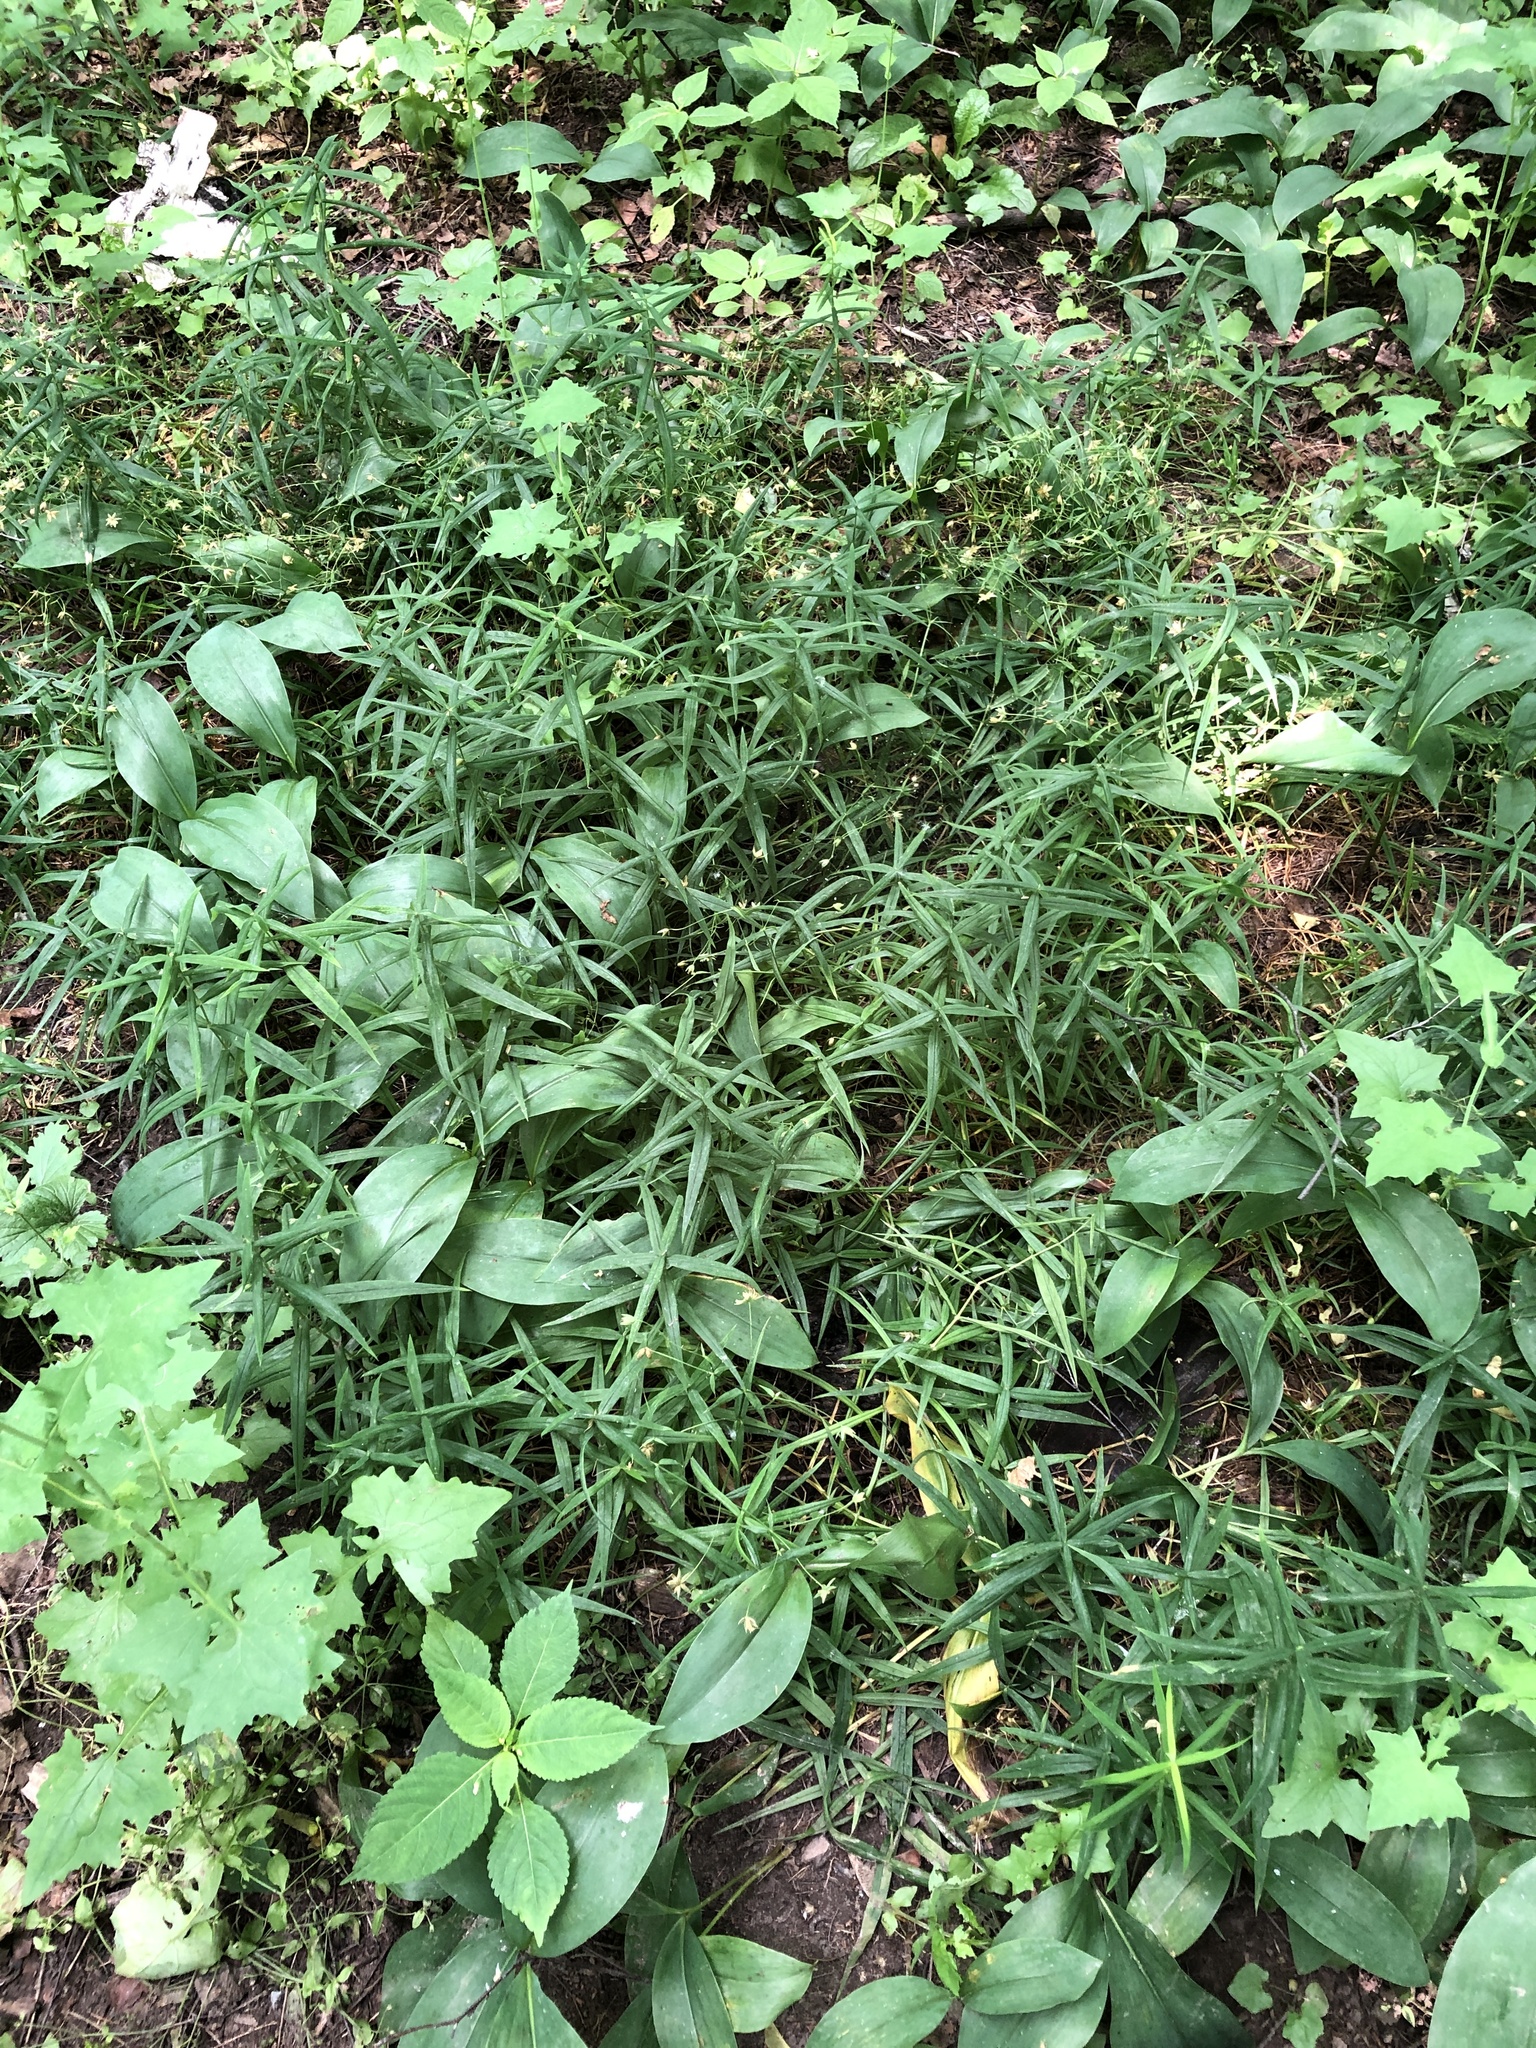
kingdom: Plantae
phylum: Tracheophyta
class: Magnoliopsida
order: Caryophyllales
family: Caryophyllaceae
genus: Rabelera
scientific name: Rabelera holostea
